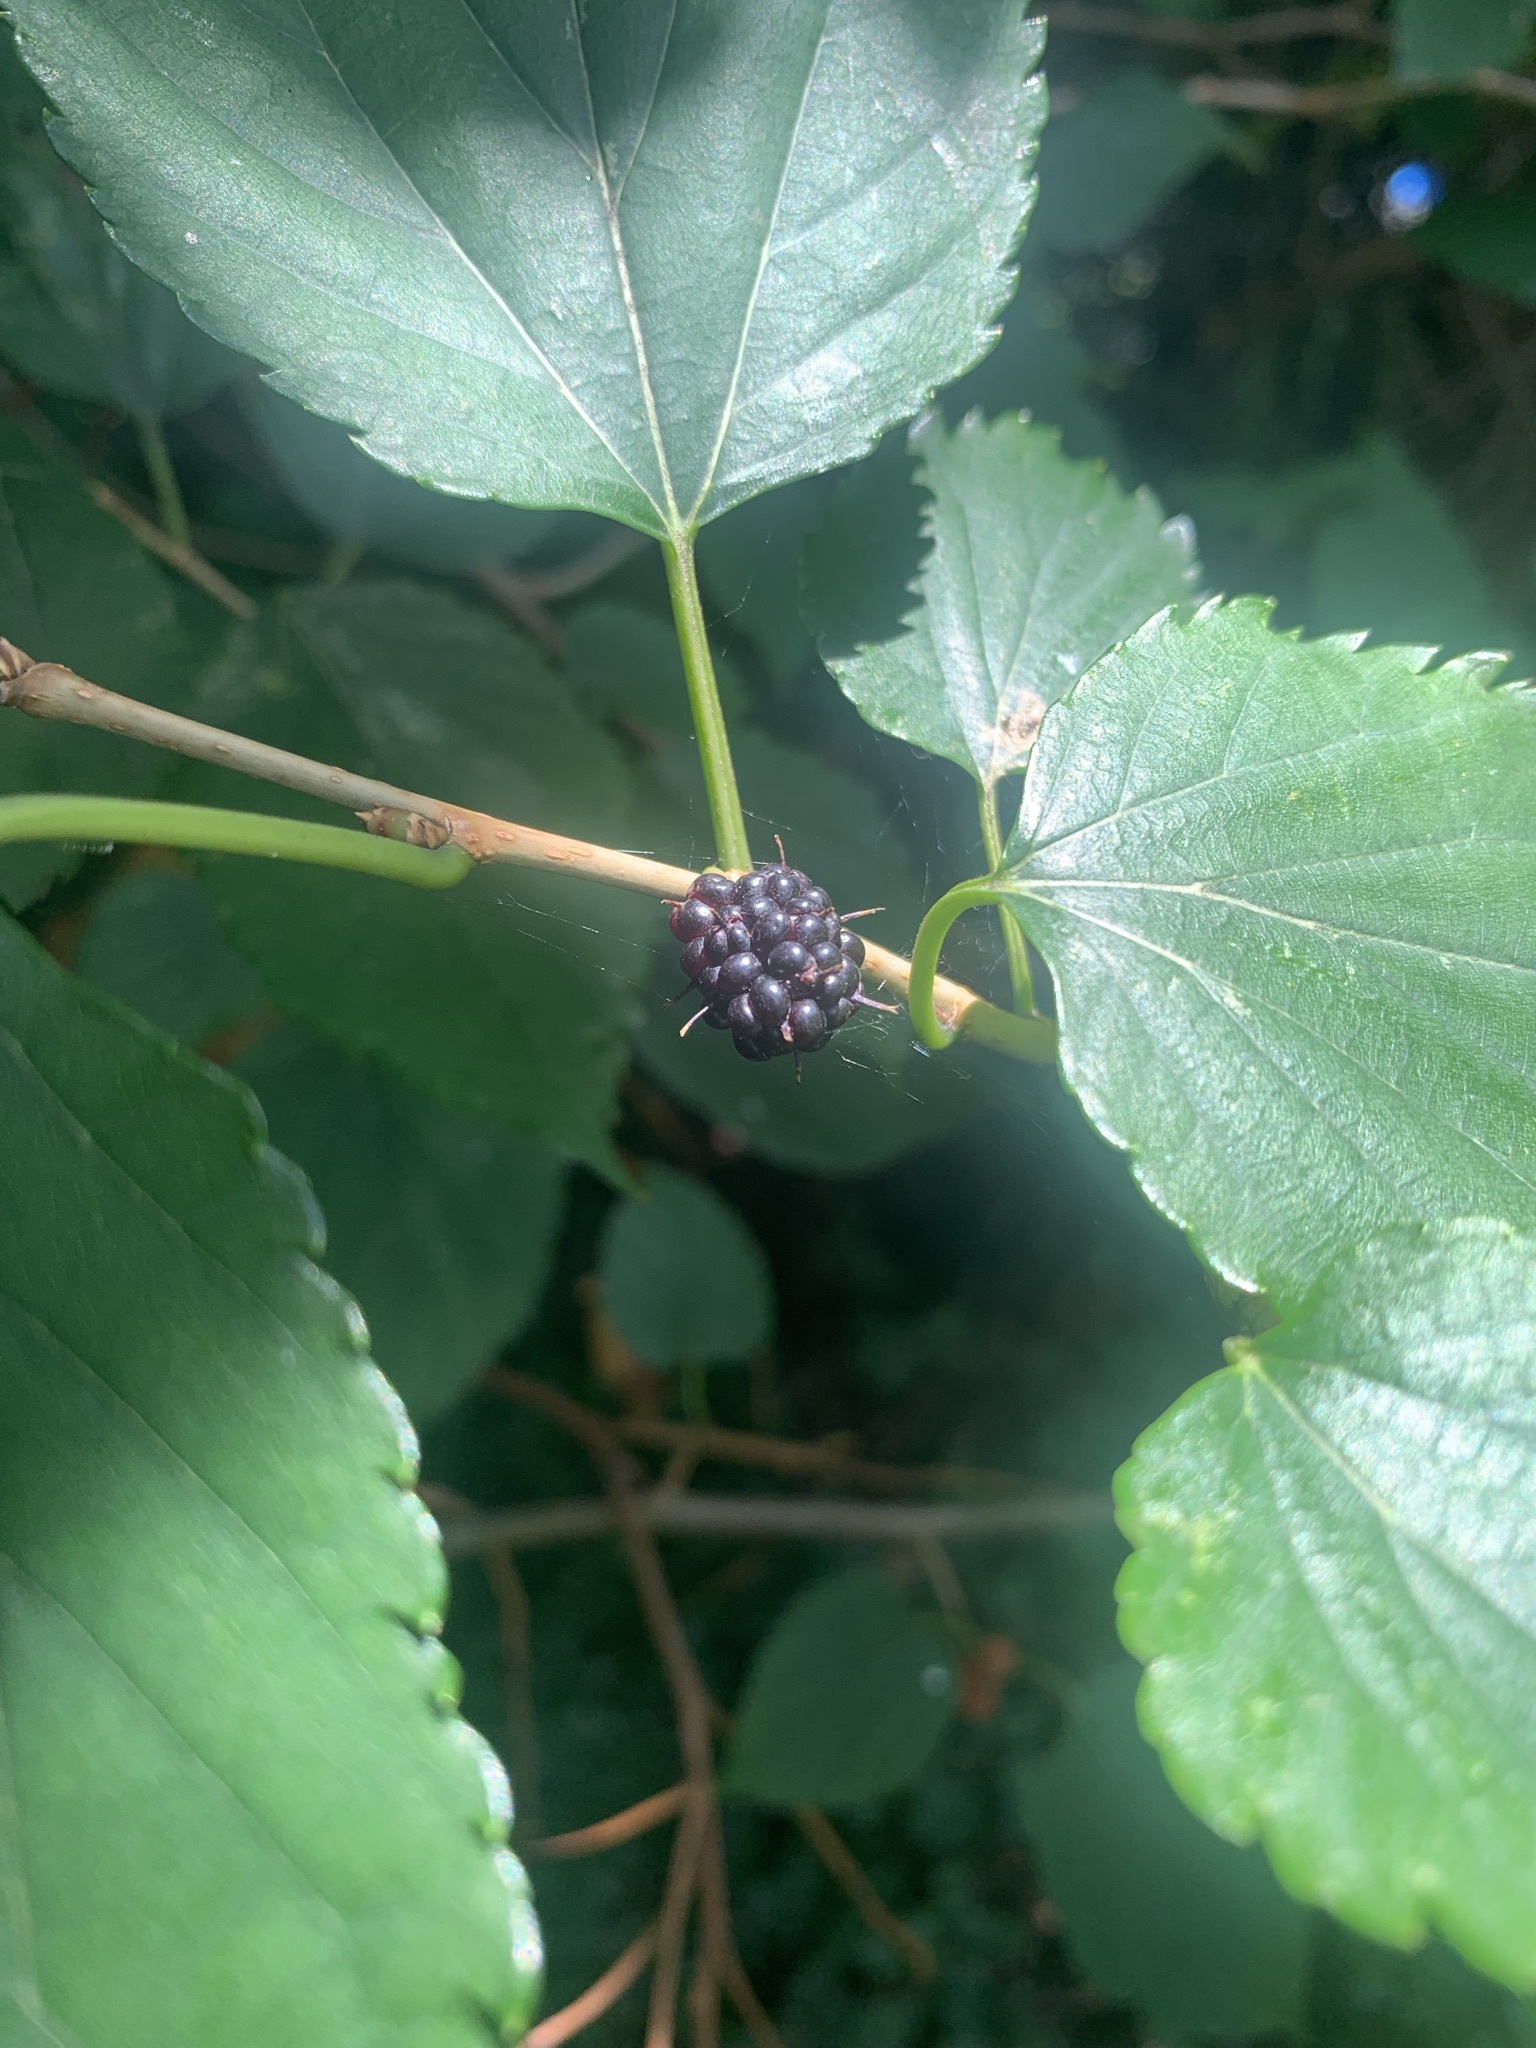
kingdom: Plantae
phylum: Tracheophyta
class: Magnoliopsida
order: Rosales
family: Moraceae
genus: Morus
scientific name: Morus indica
